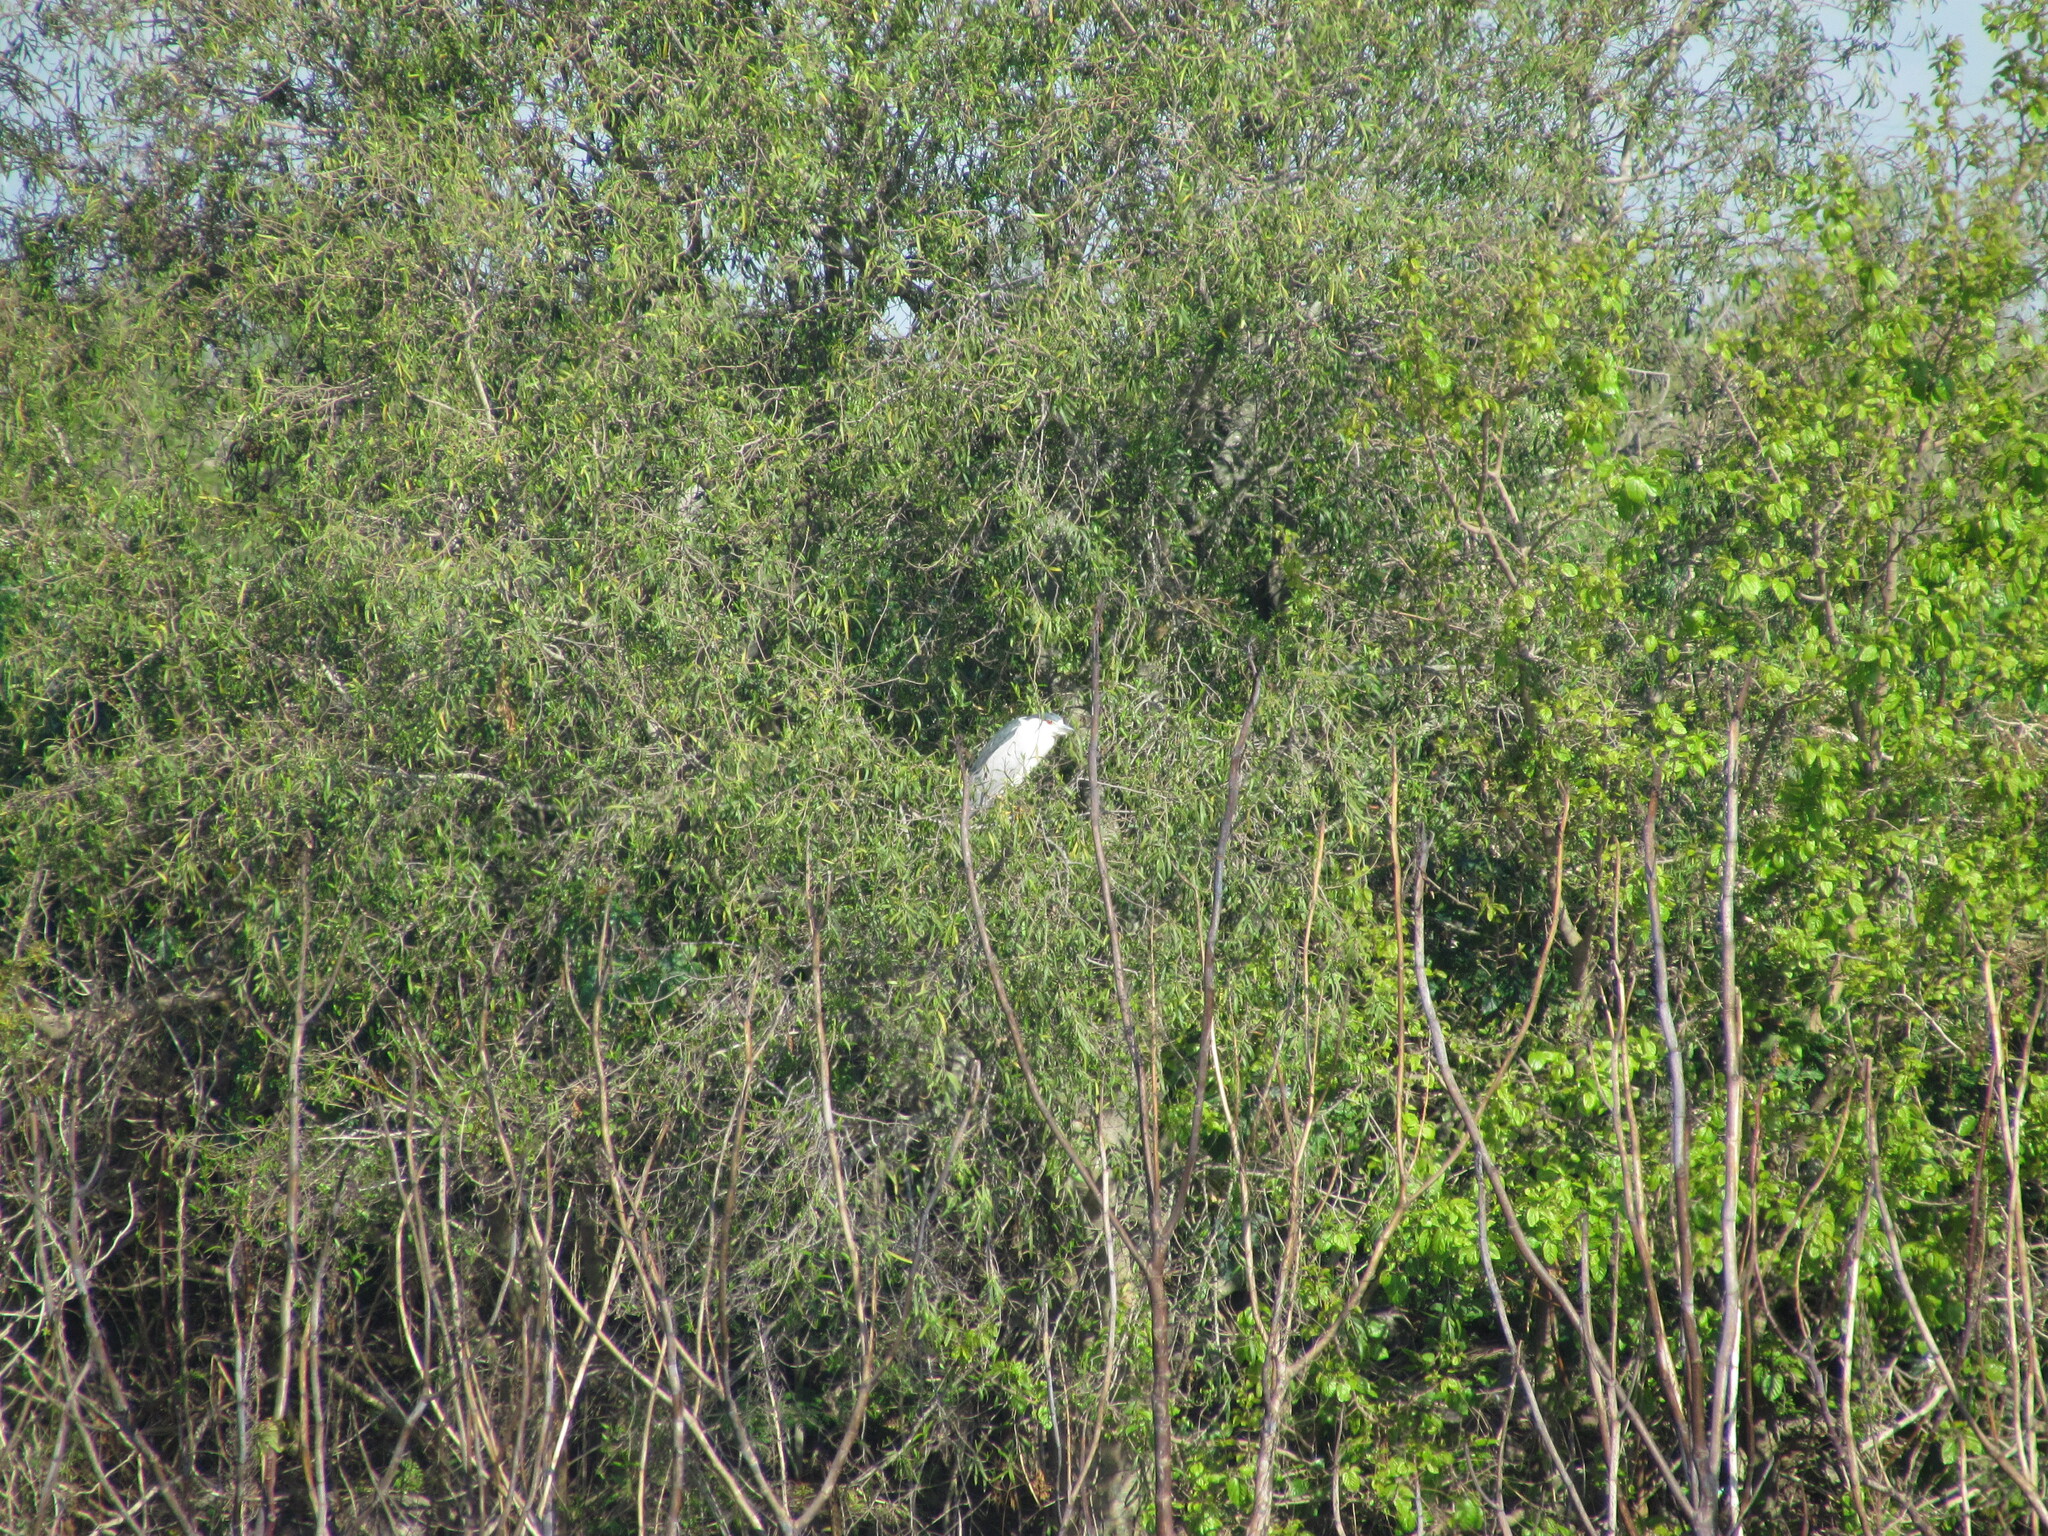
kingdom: Animalia
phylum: Chordata
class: Aves
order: Pelecaniformes
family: Ardeidae
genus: Nycticorax
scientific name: Nycticorax nycticorax
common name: Black-crowned night heron
